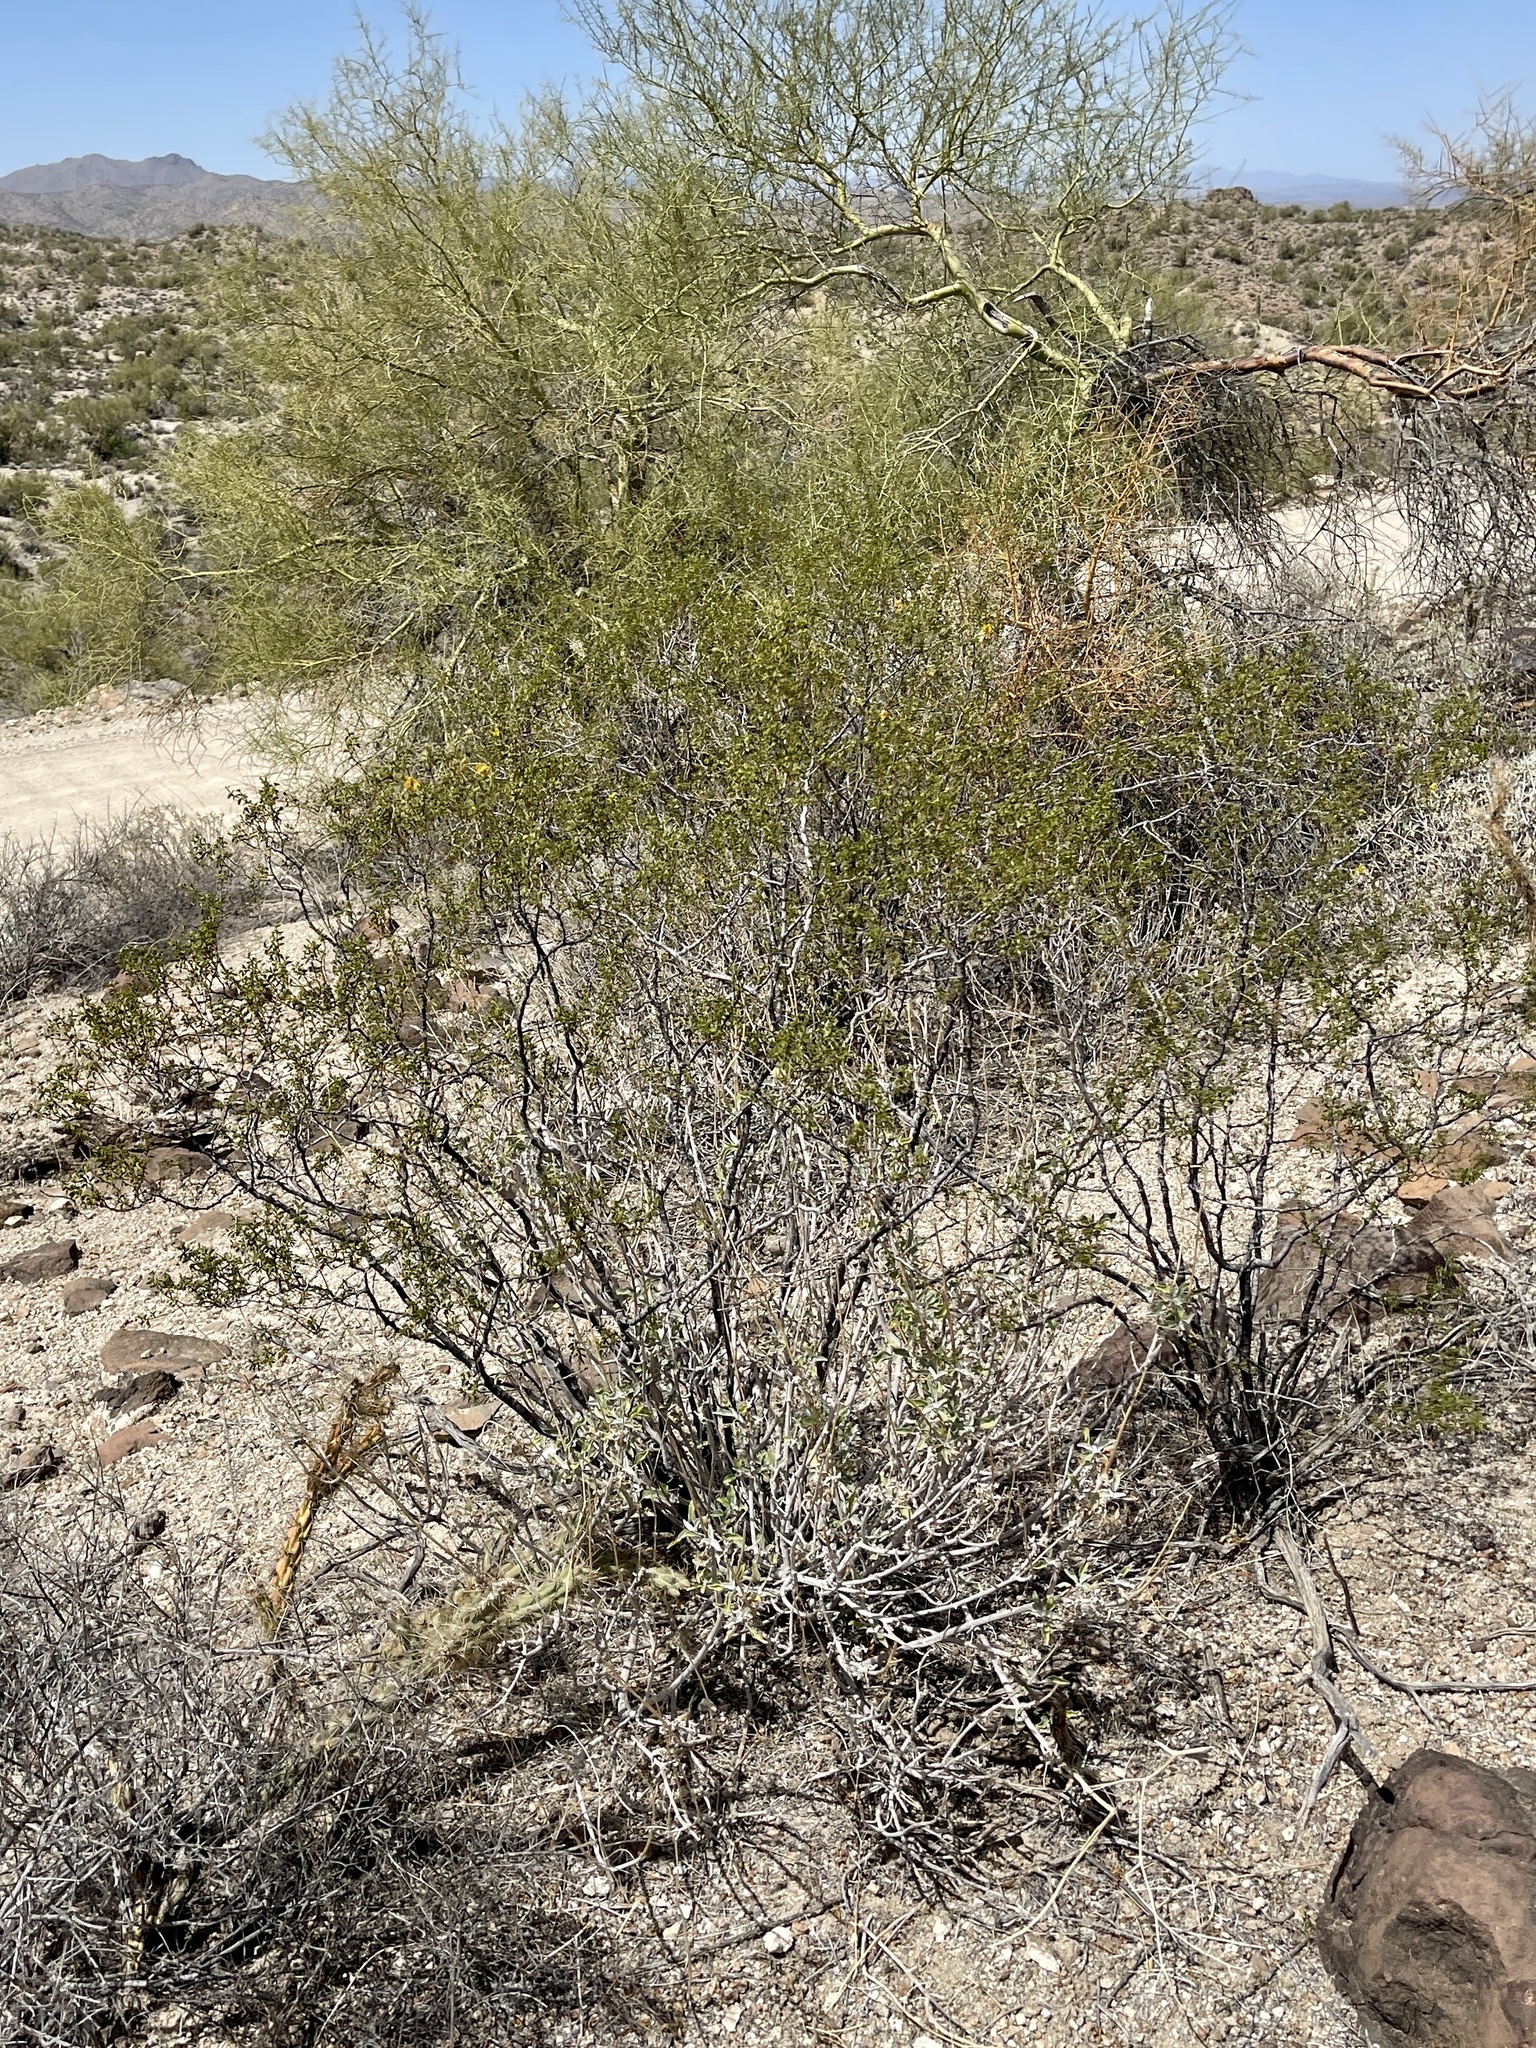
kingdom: Plantae
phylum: Tracheophyta
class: Magnoliopsida
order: Zygophyllales
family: Zygophyllaceae
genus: Larrea
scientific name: Larrea tridentata
